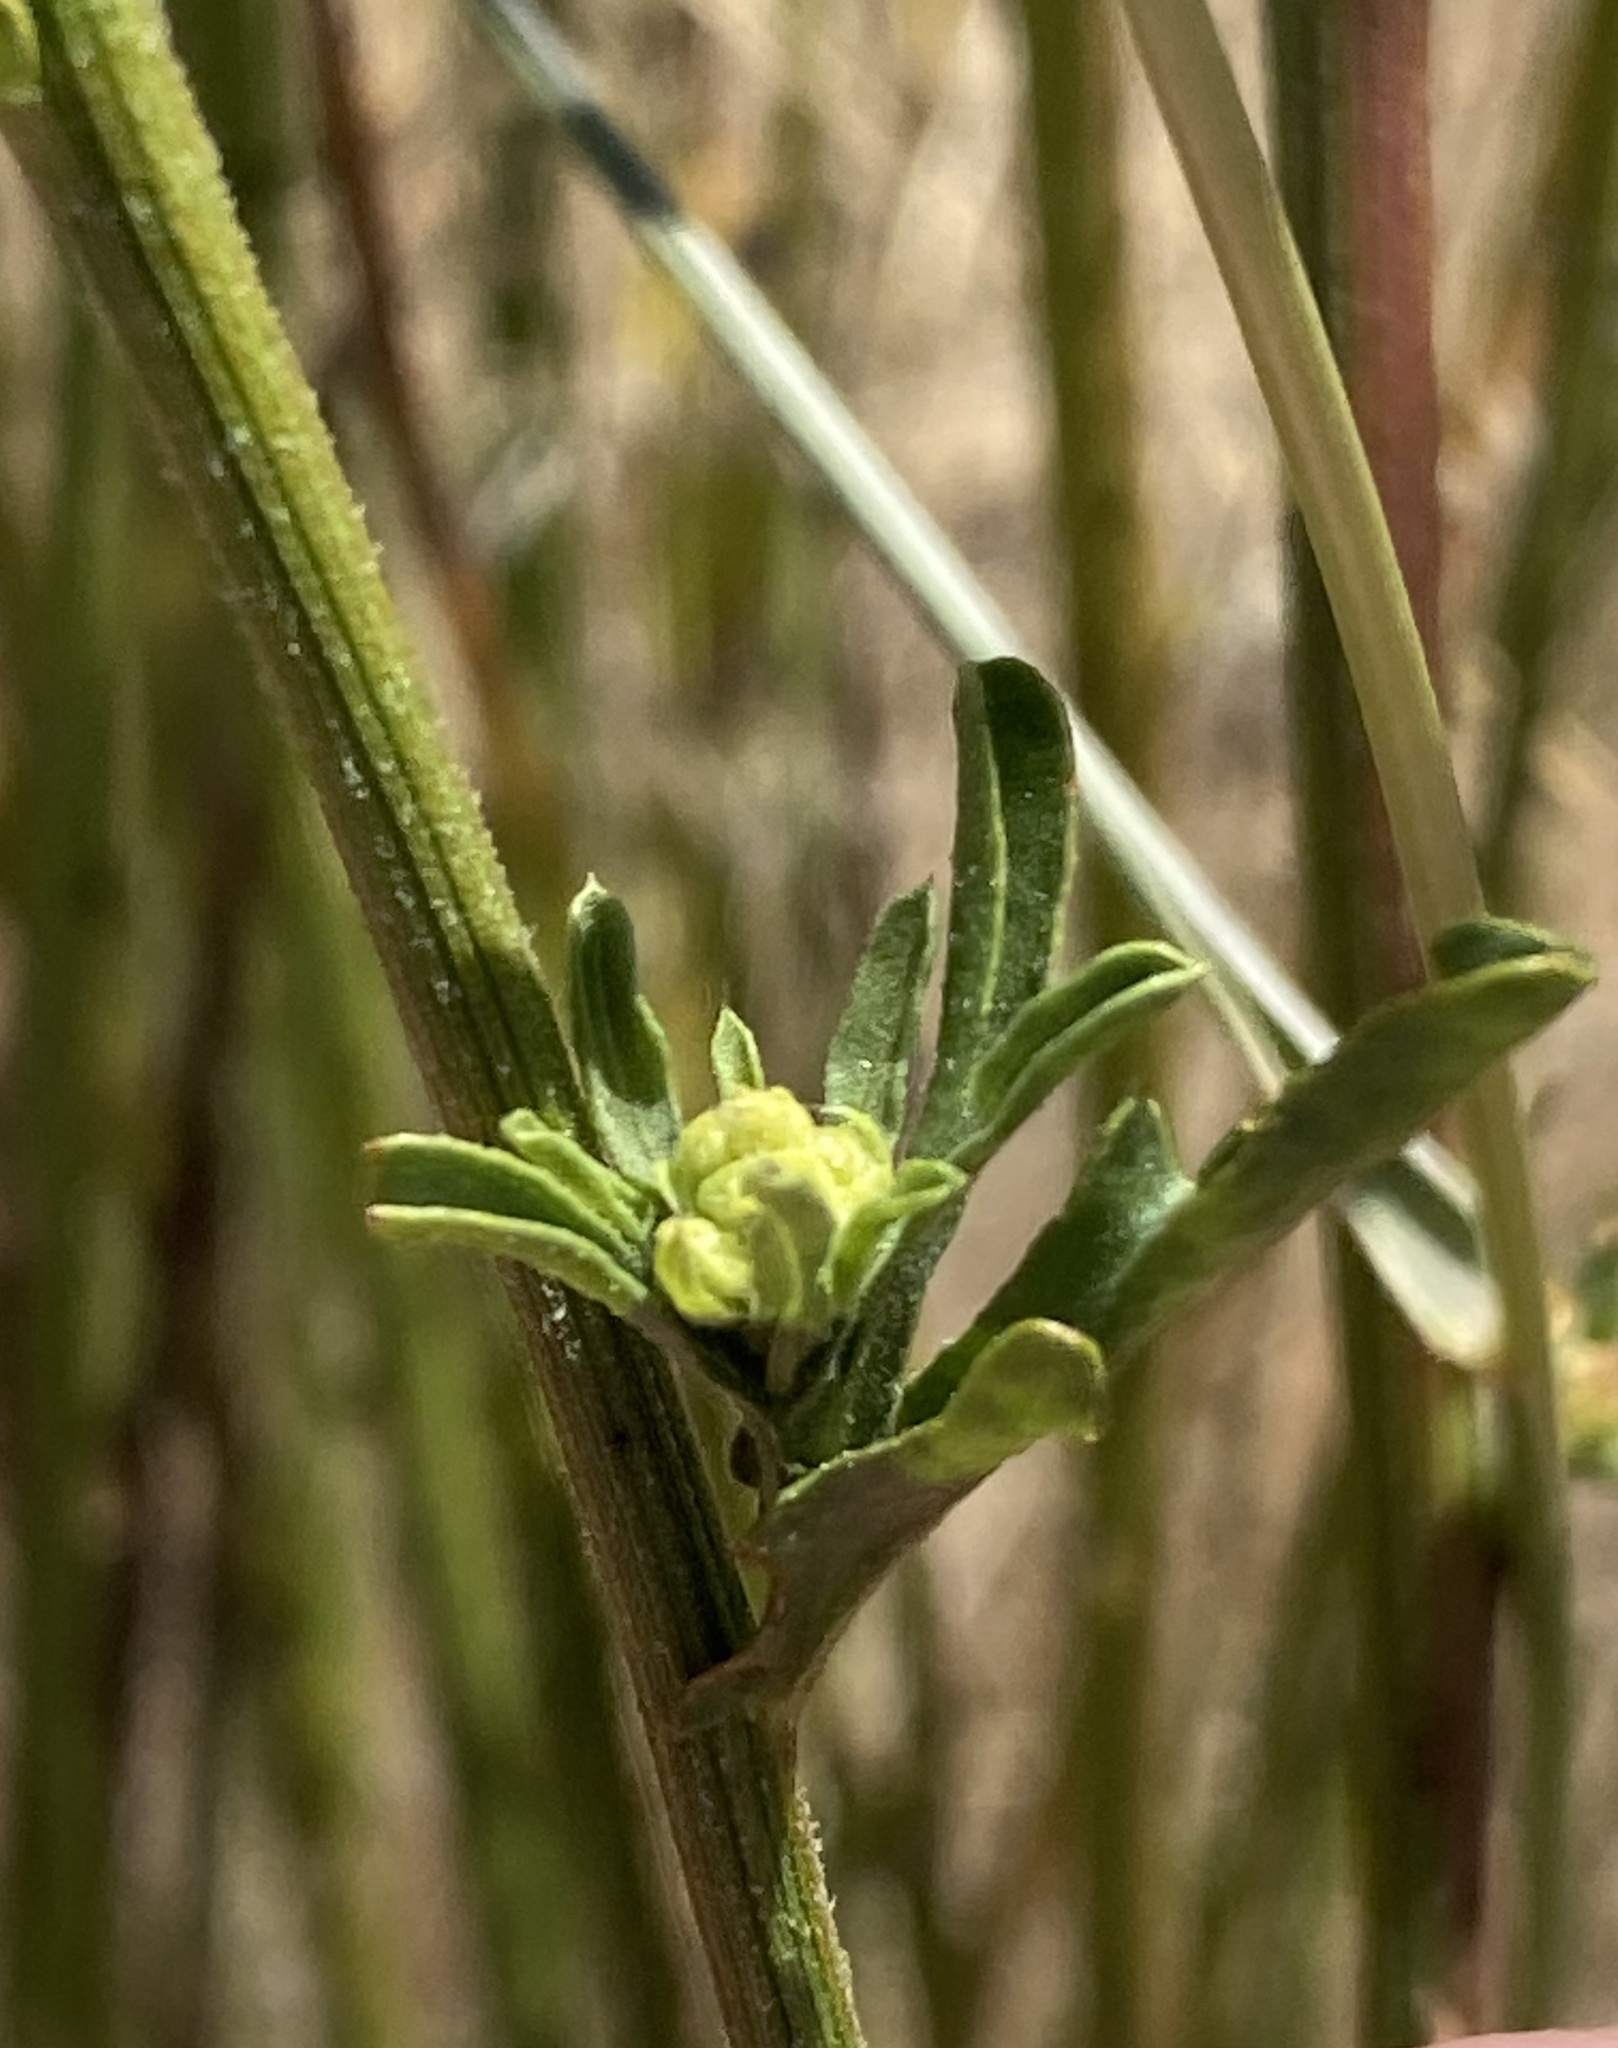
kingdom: Plantae
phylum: Tracheophyta
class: Magnoliopsida
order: Asterales
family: Asteraceae
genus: Nidorella
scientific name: Nidorella resedifolia
